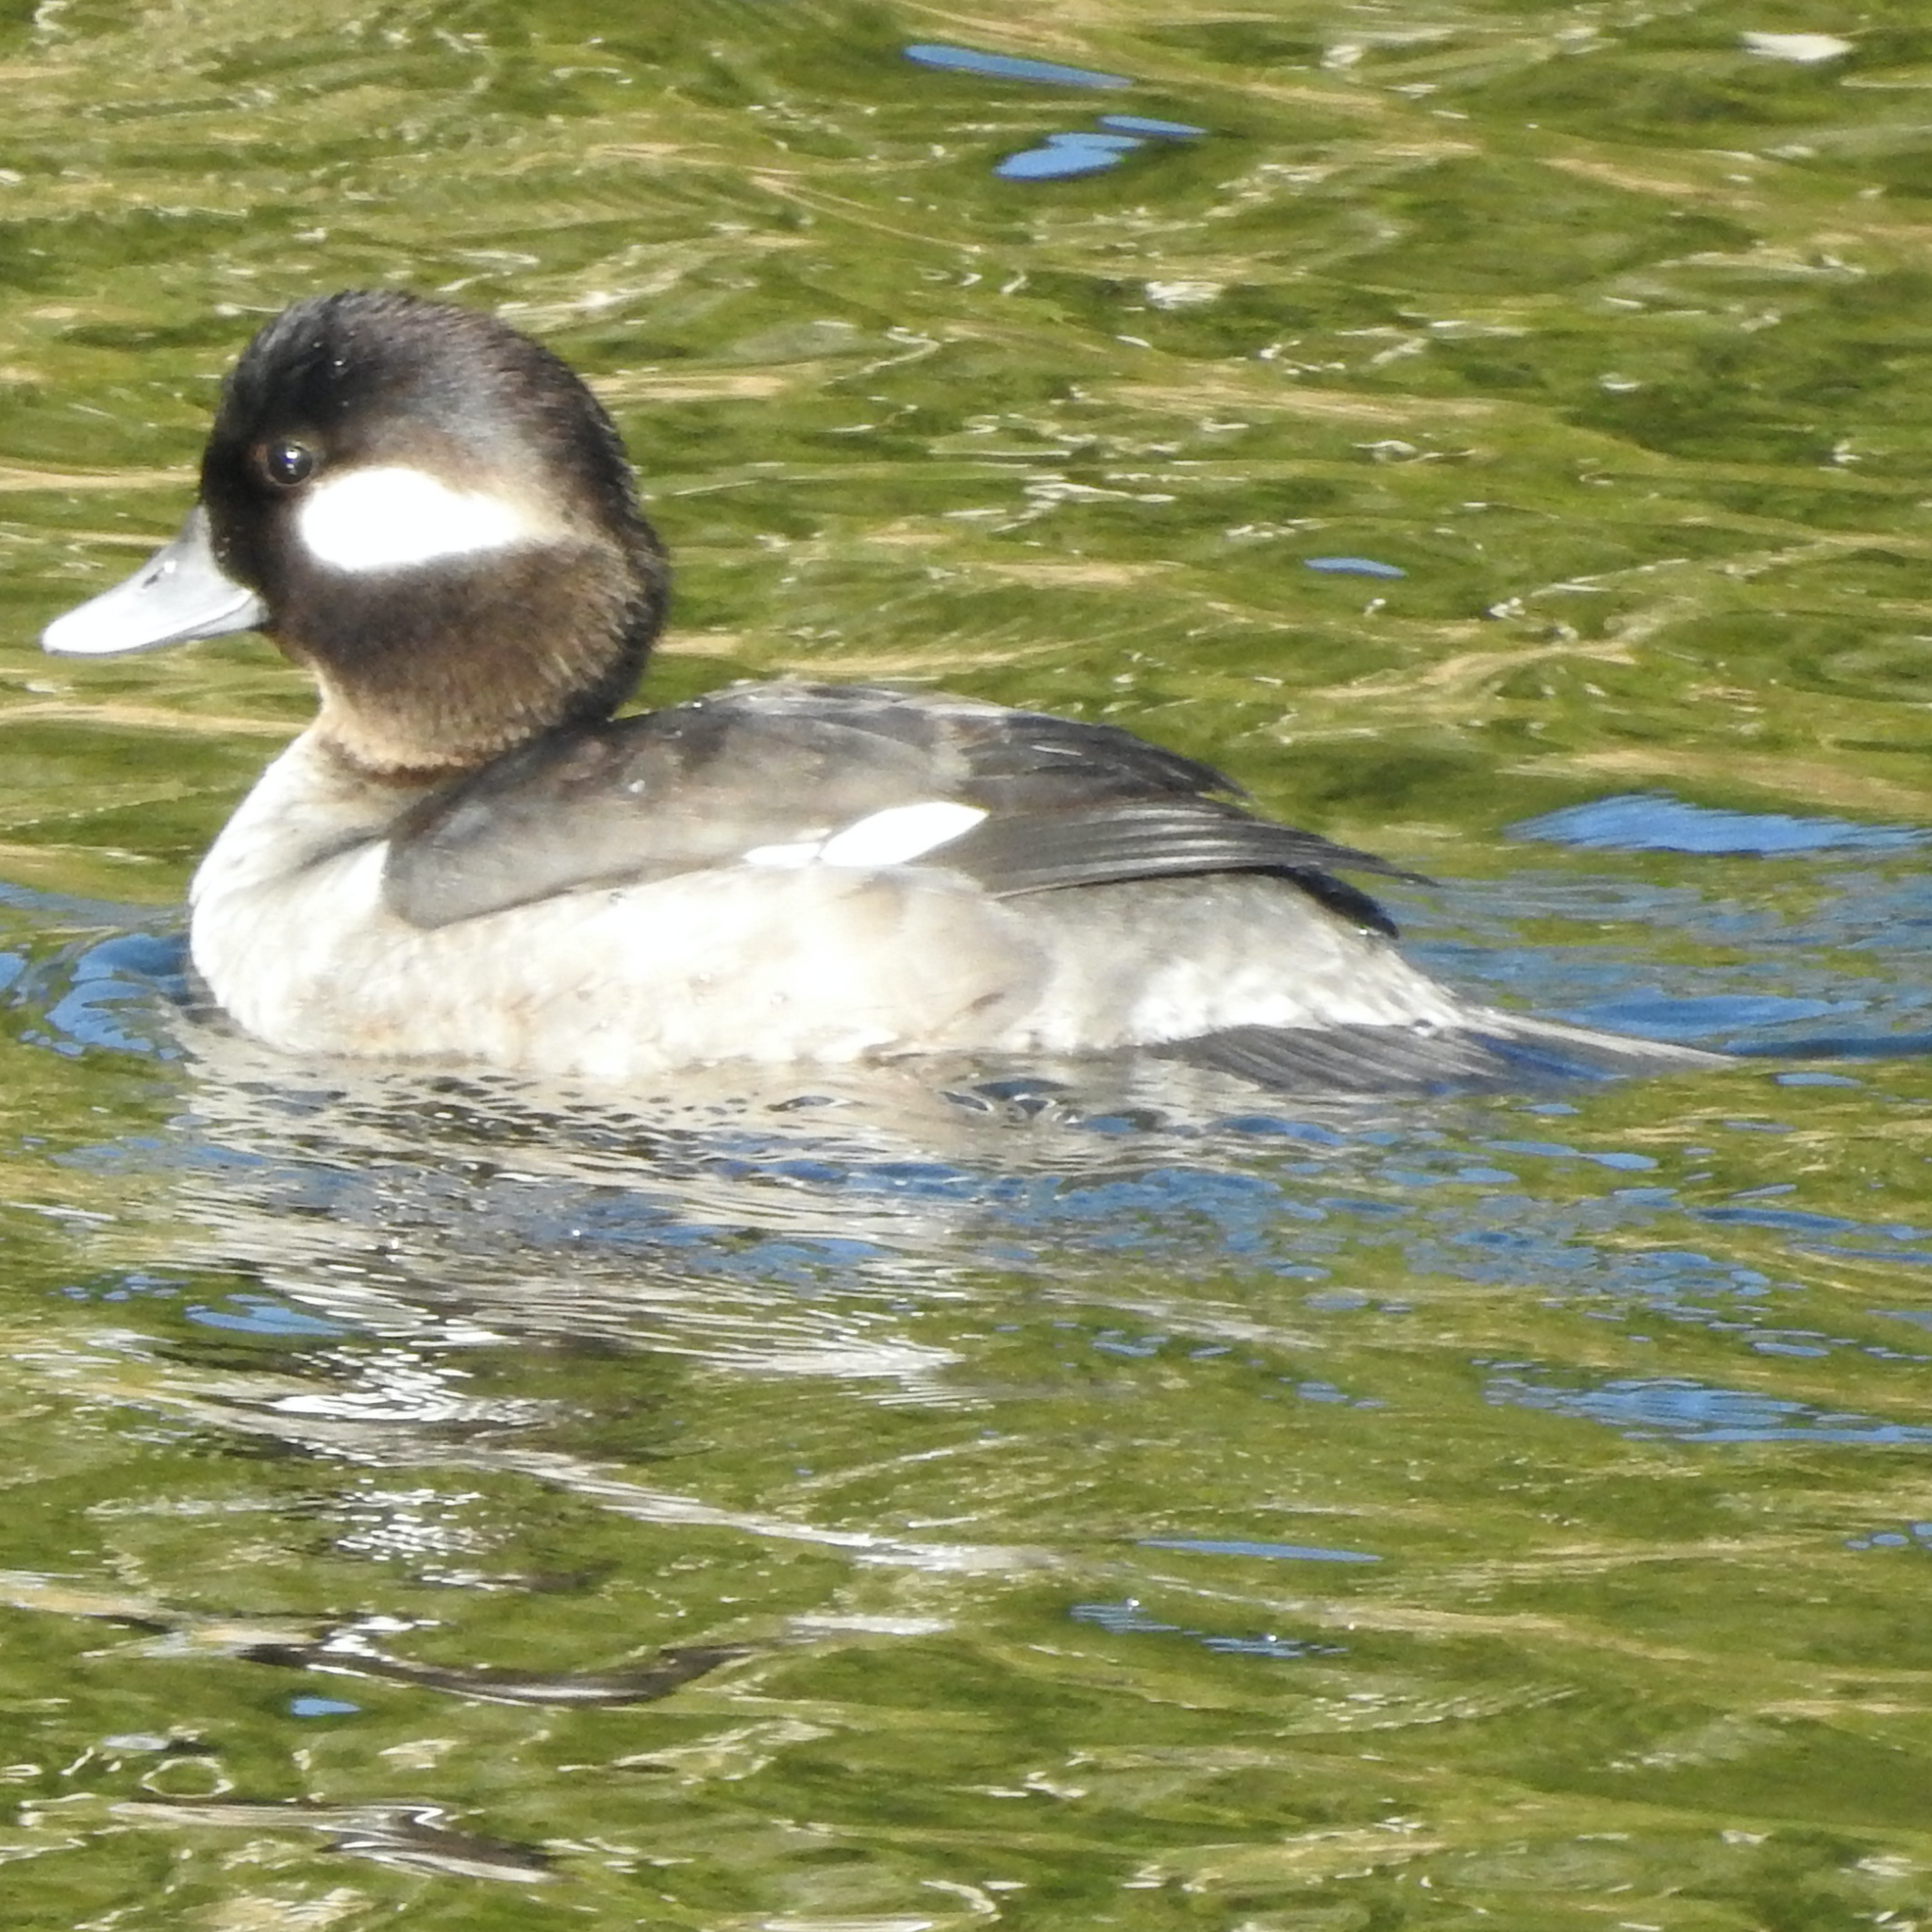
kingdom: Animalia
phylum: Chordata
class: Aves
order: Anseriformes
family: Anatidae
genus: Bucephala
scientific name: Bucephala albeola
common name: Bufflehead
